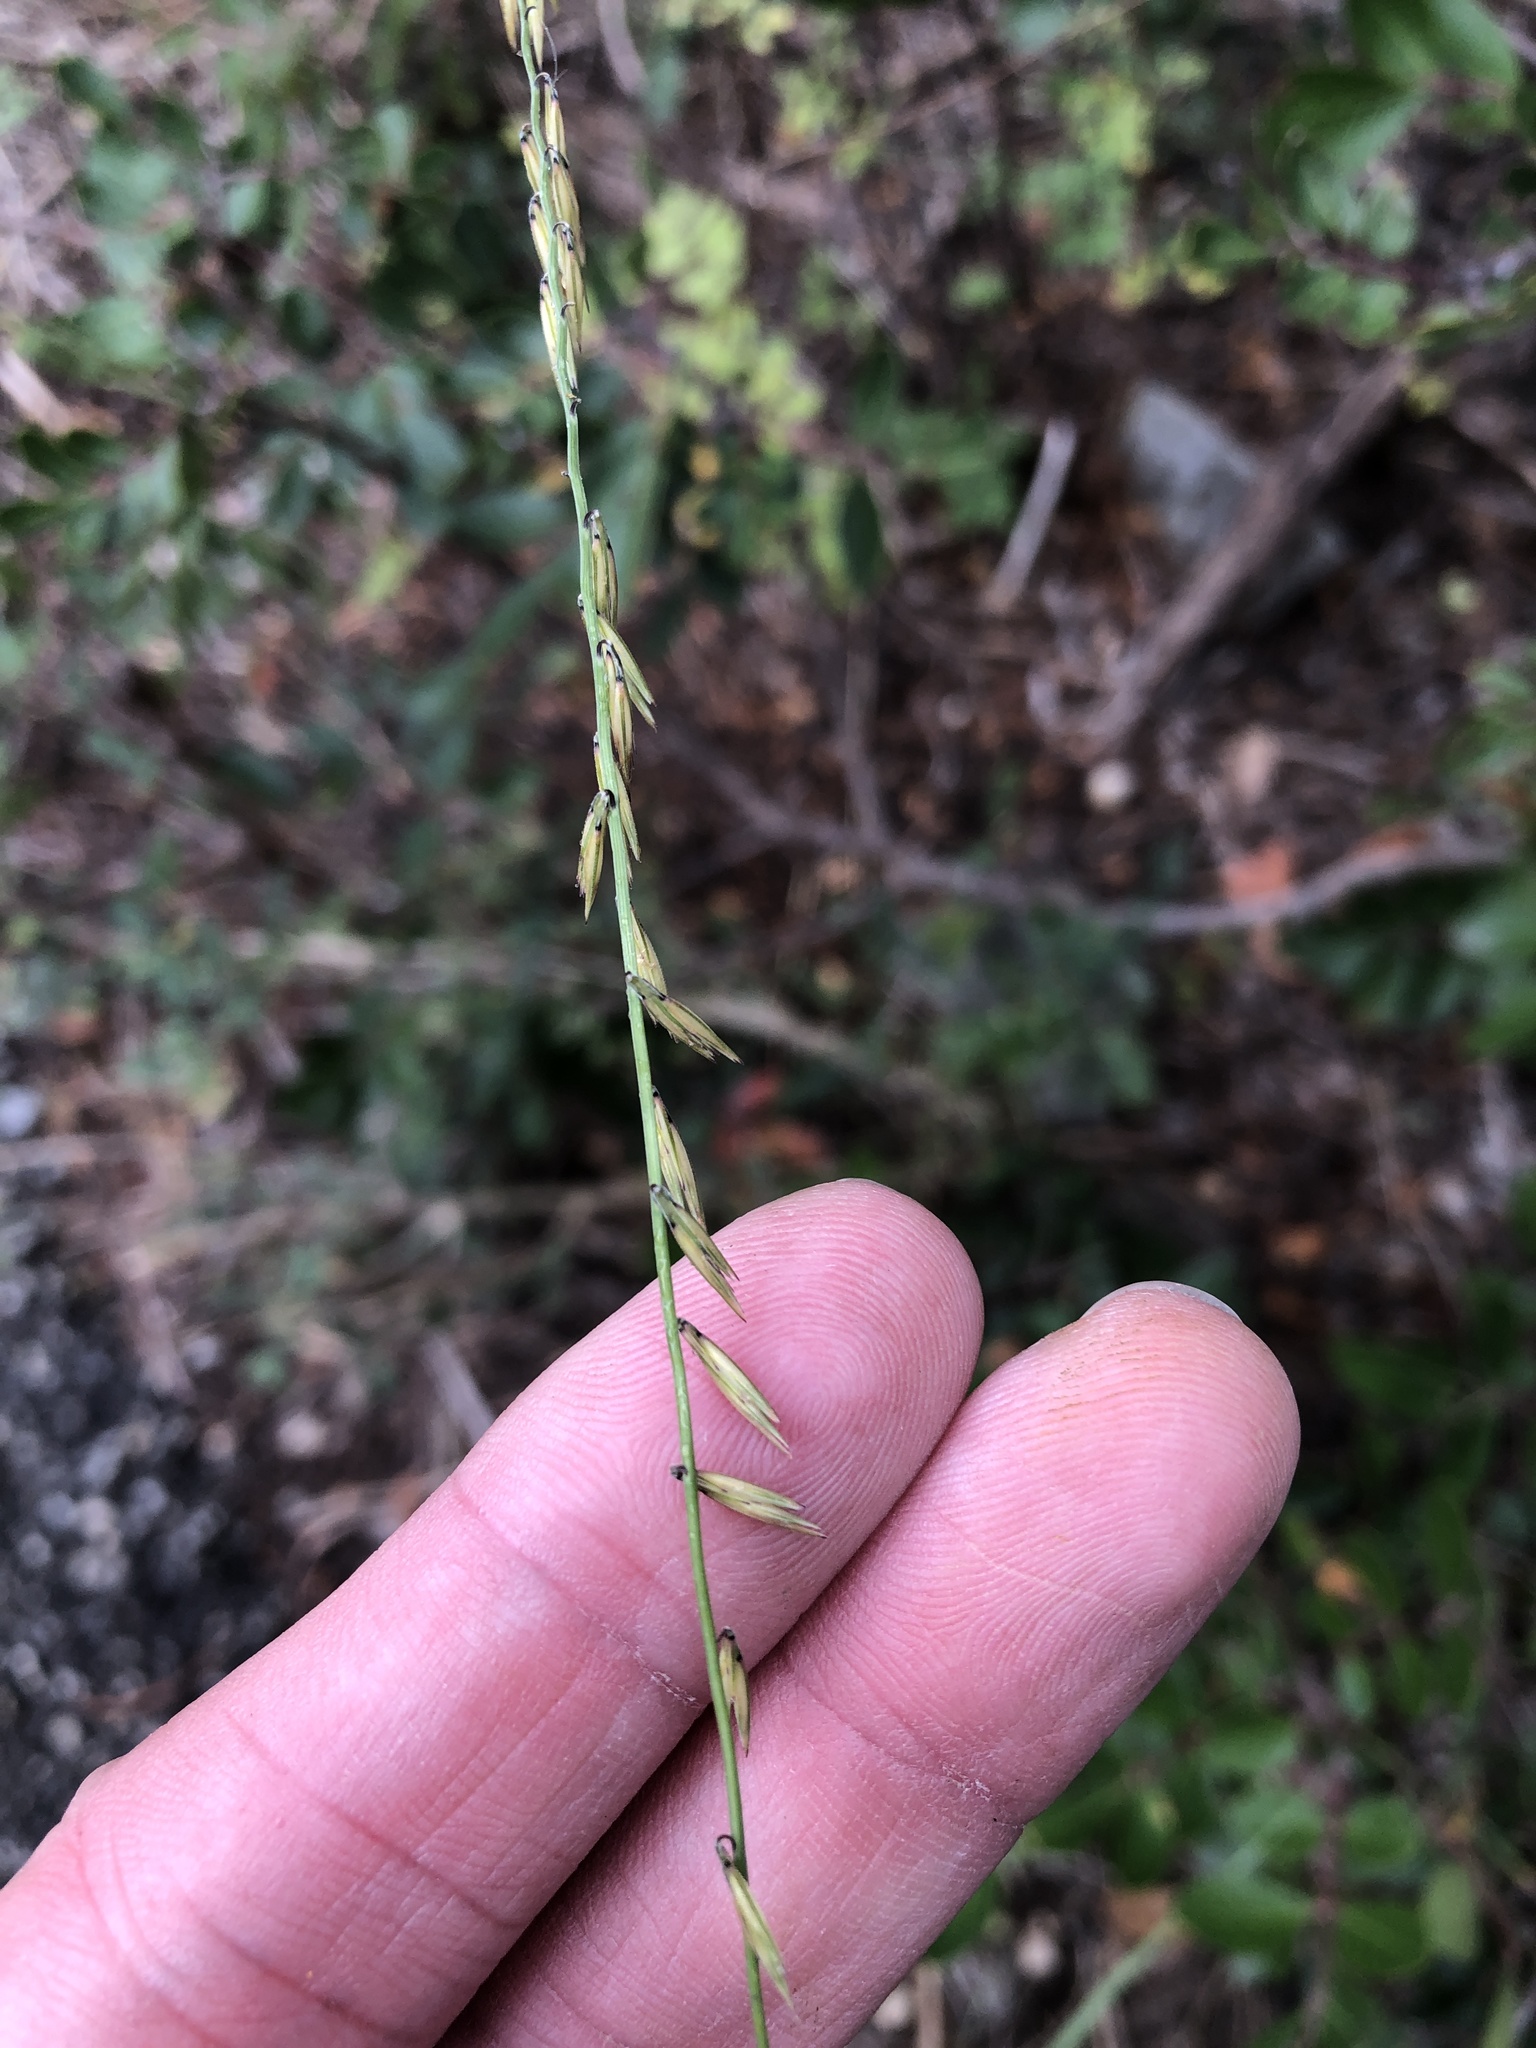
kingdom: Plantae
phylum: Tracheophyta
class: Liliopsida
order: Poales
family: Poaceae
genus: Bouteloua
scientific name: Bouteloua curtipendula
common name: Side-oats grama
